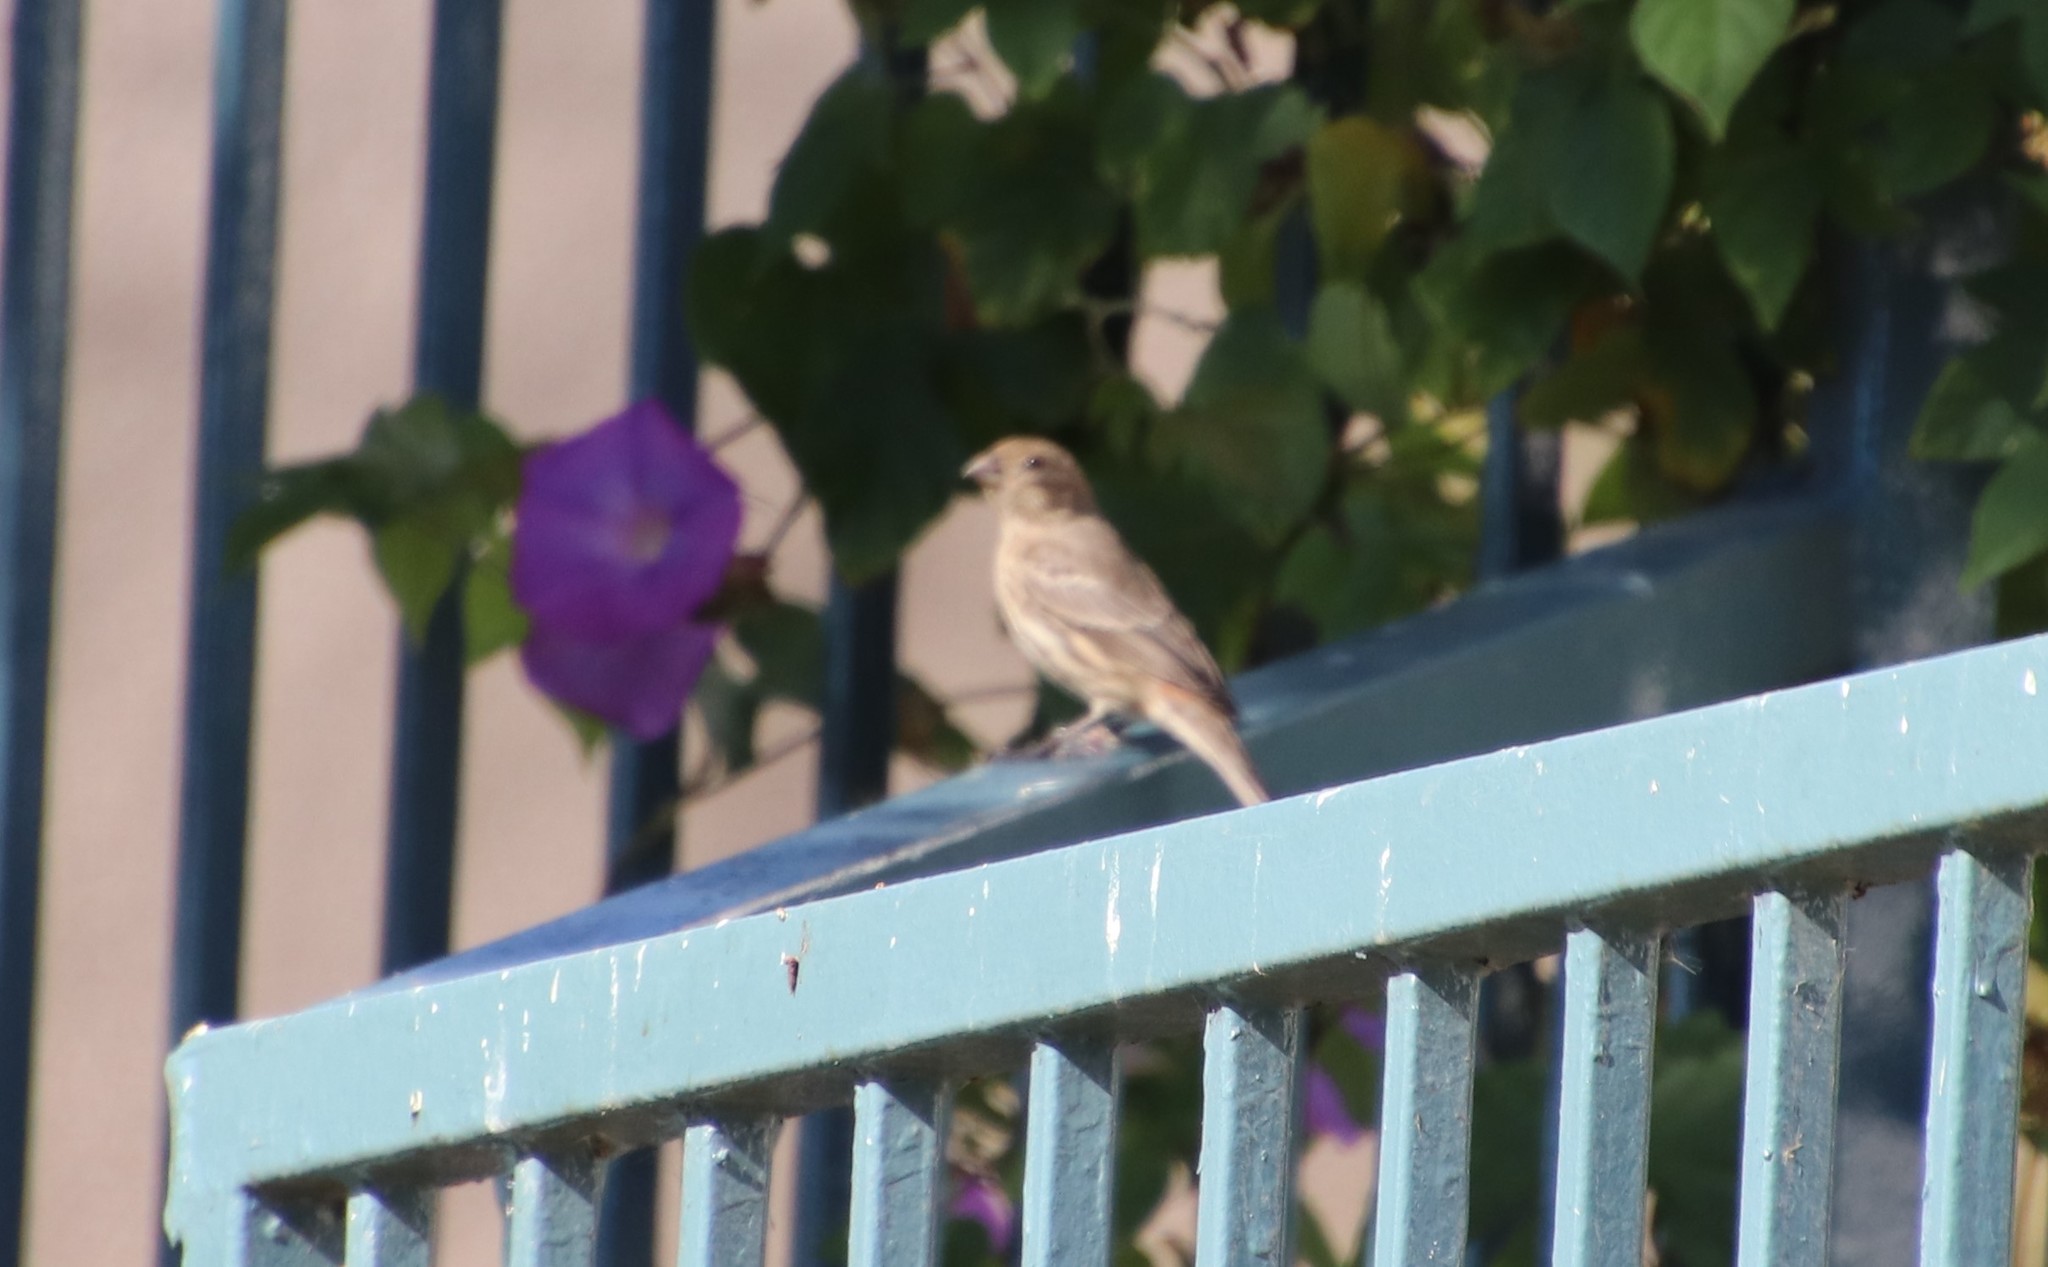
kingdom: Animalia
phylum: Chordata
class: Aves
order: Passeriformes
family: Fringillidae
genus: Haemorhous
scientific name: Haemorhous mexicanus
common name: House finch
